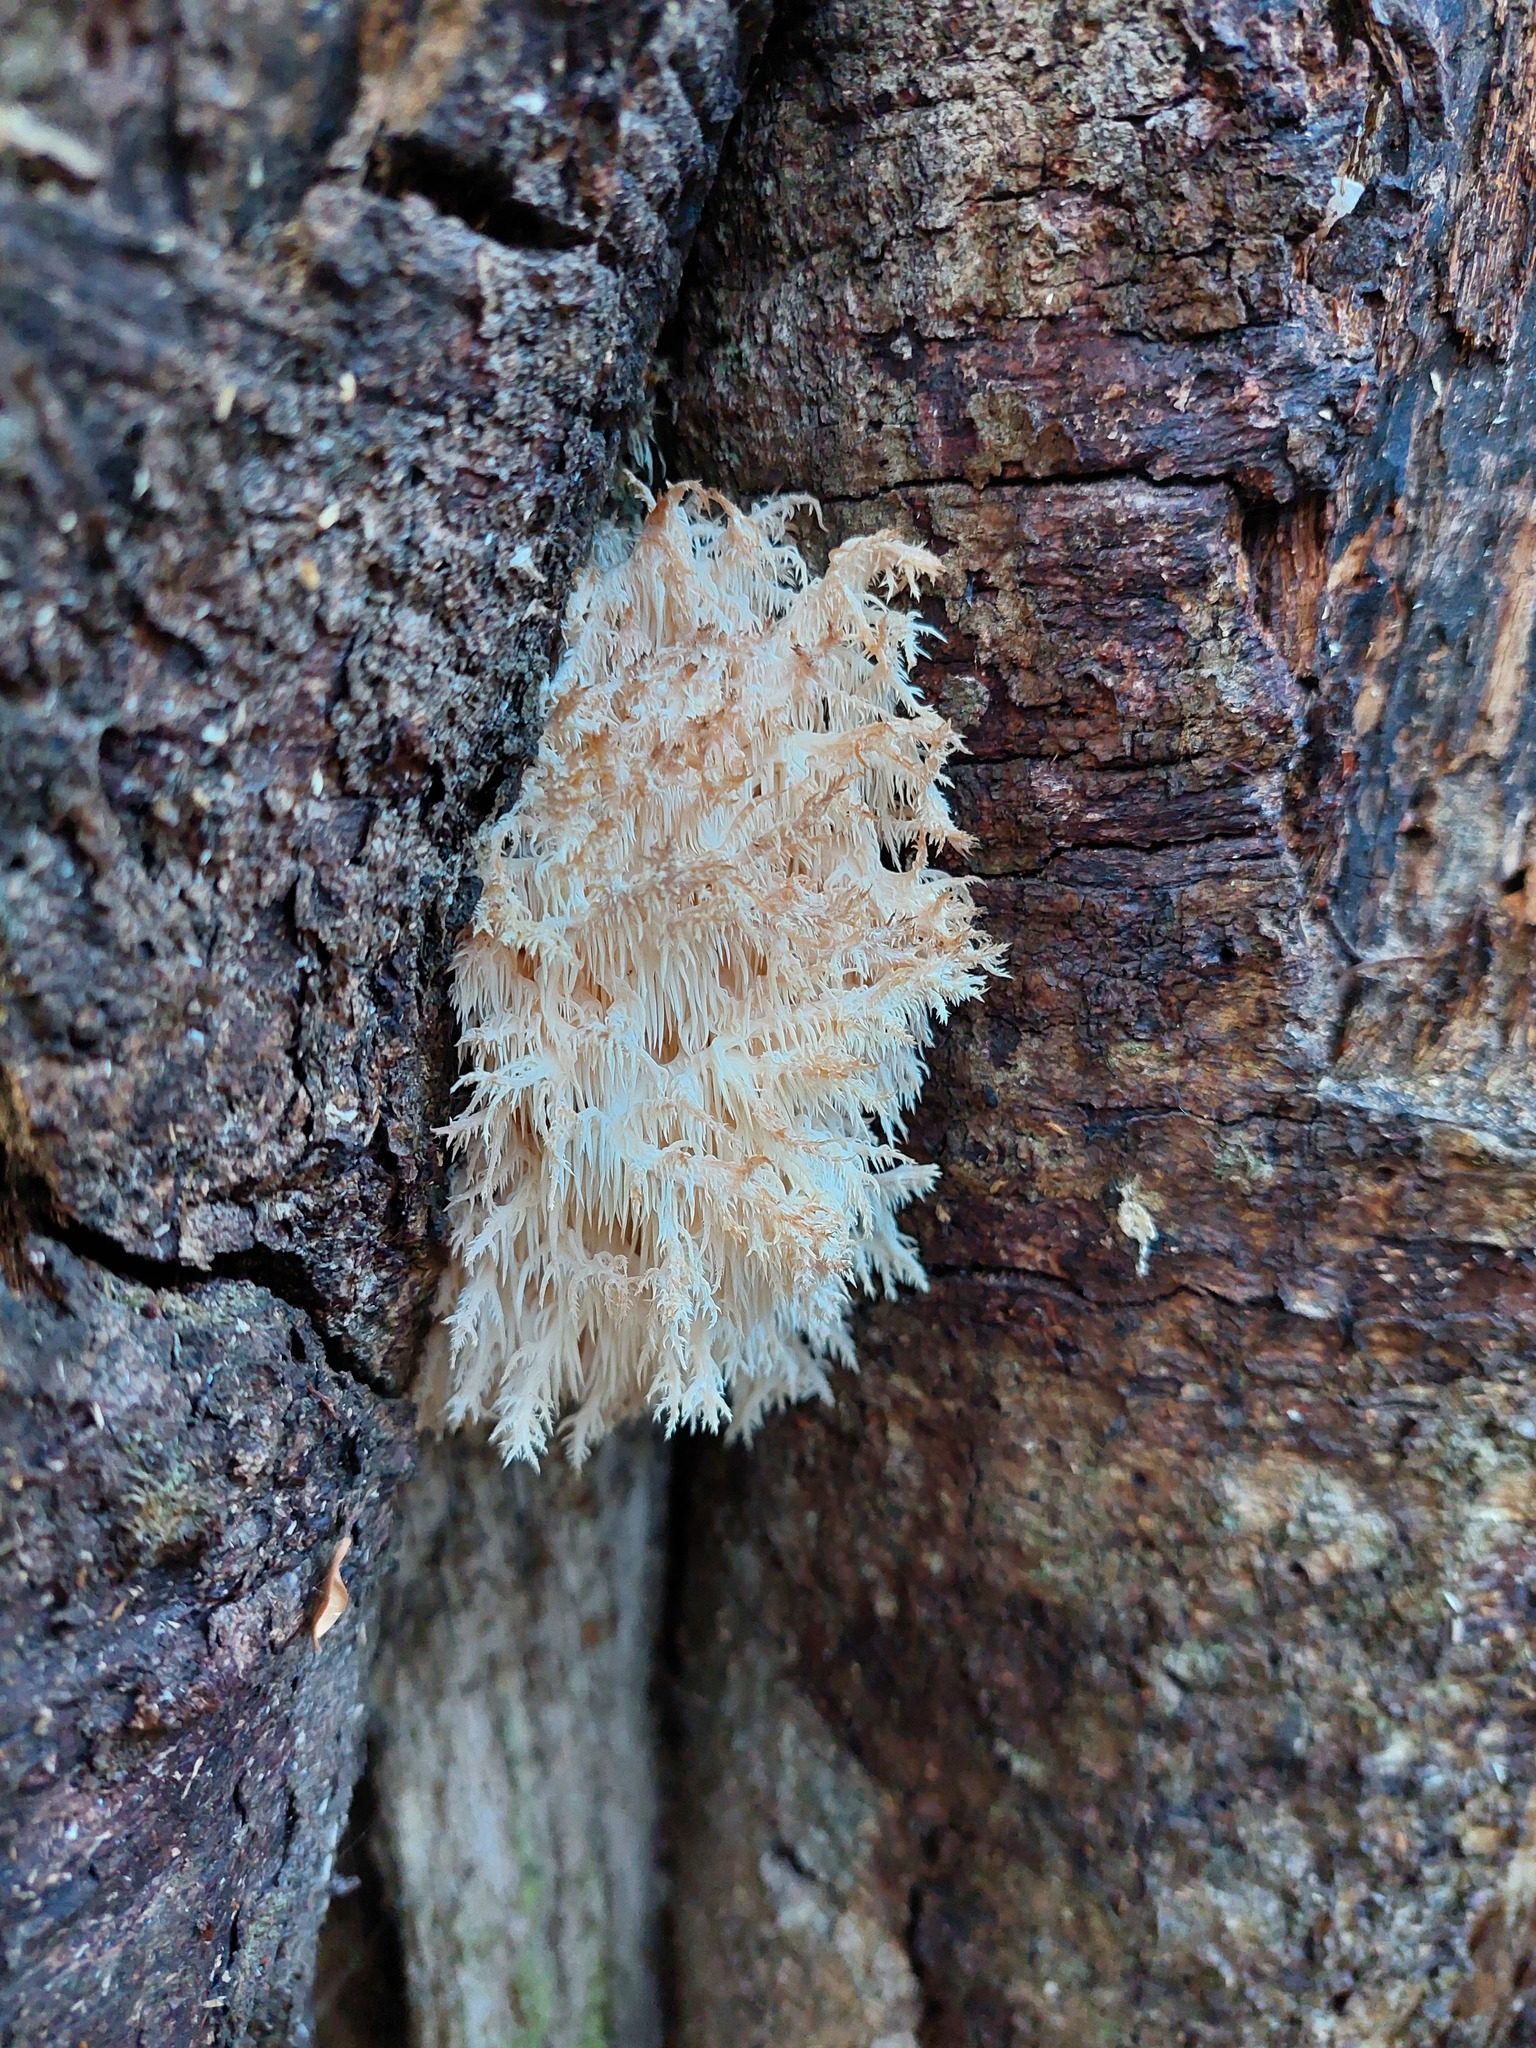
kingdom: Fungi
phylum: Basidiomycota
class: Agaricomycetes
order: Russulales
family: Hericiaceae
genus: Hericium
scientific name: Hericium novae-zealandiae
